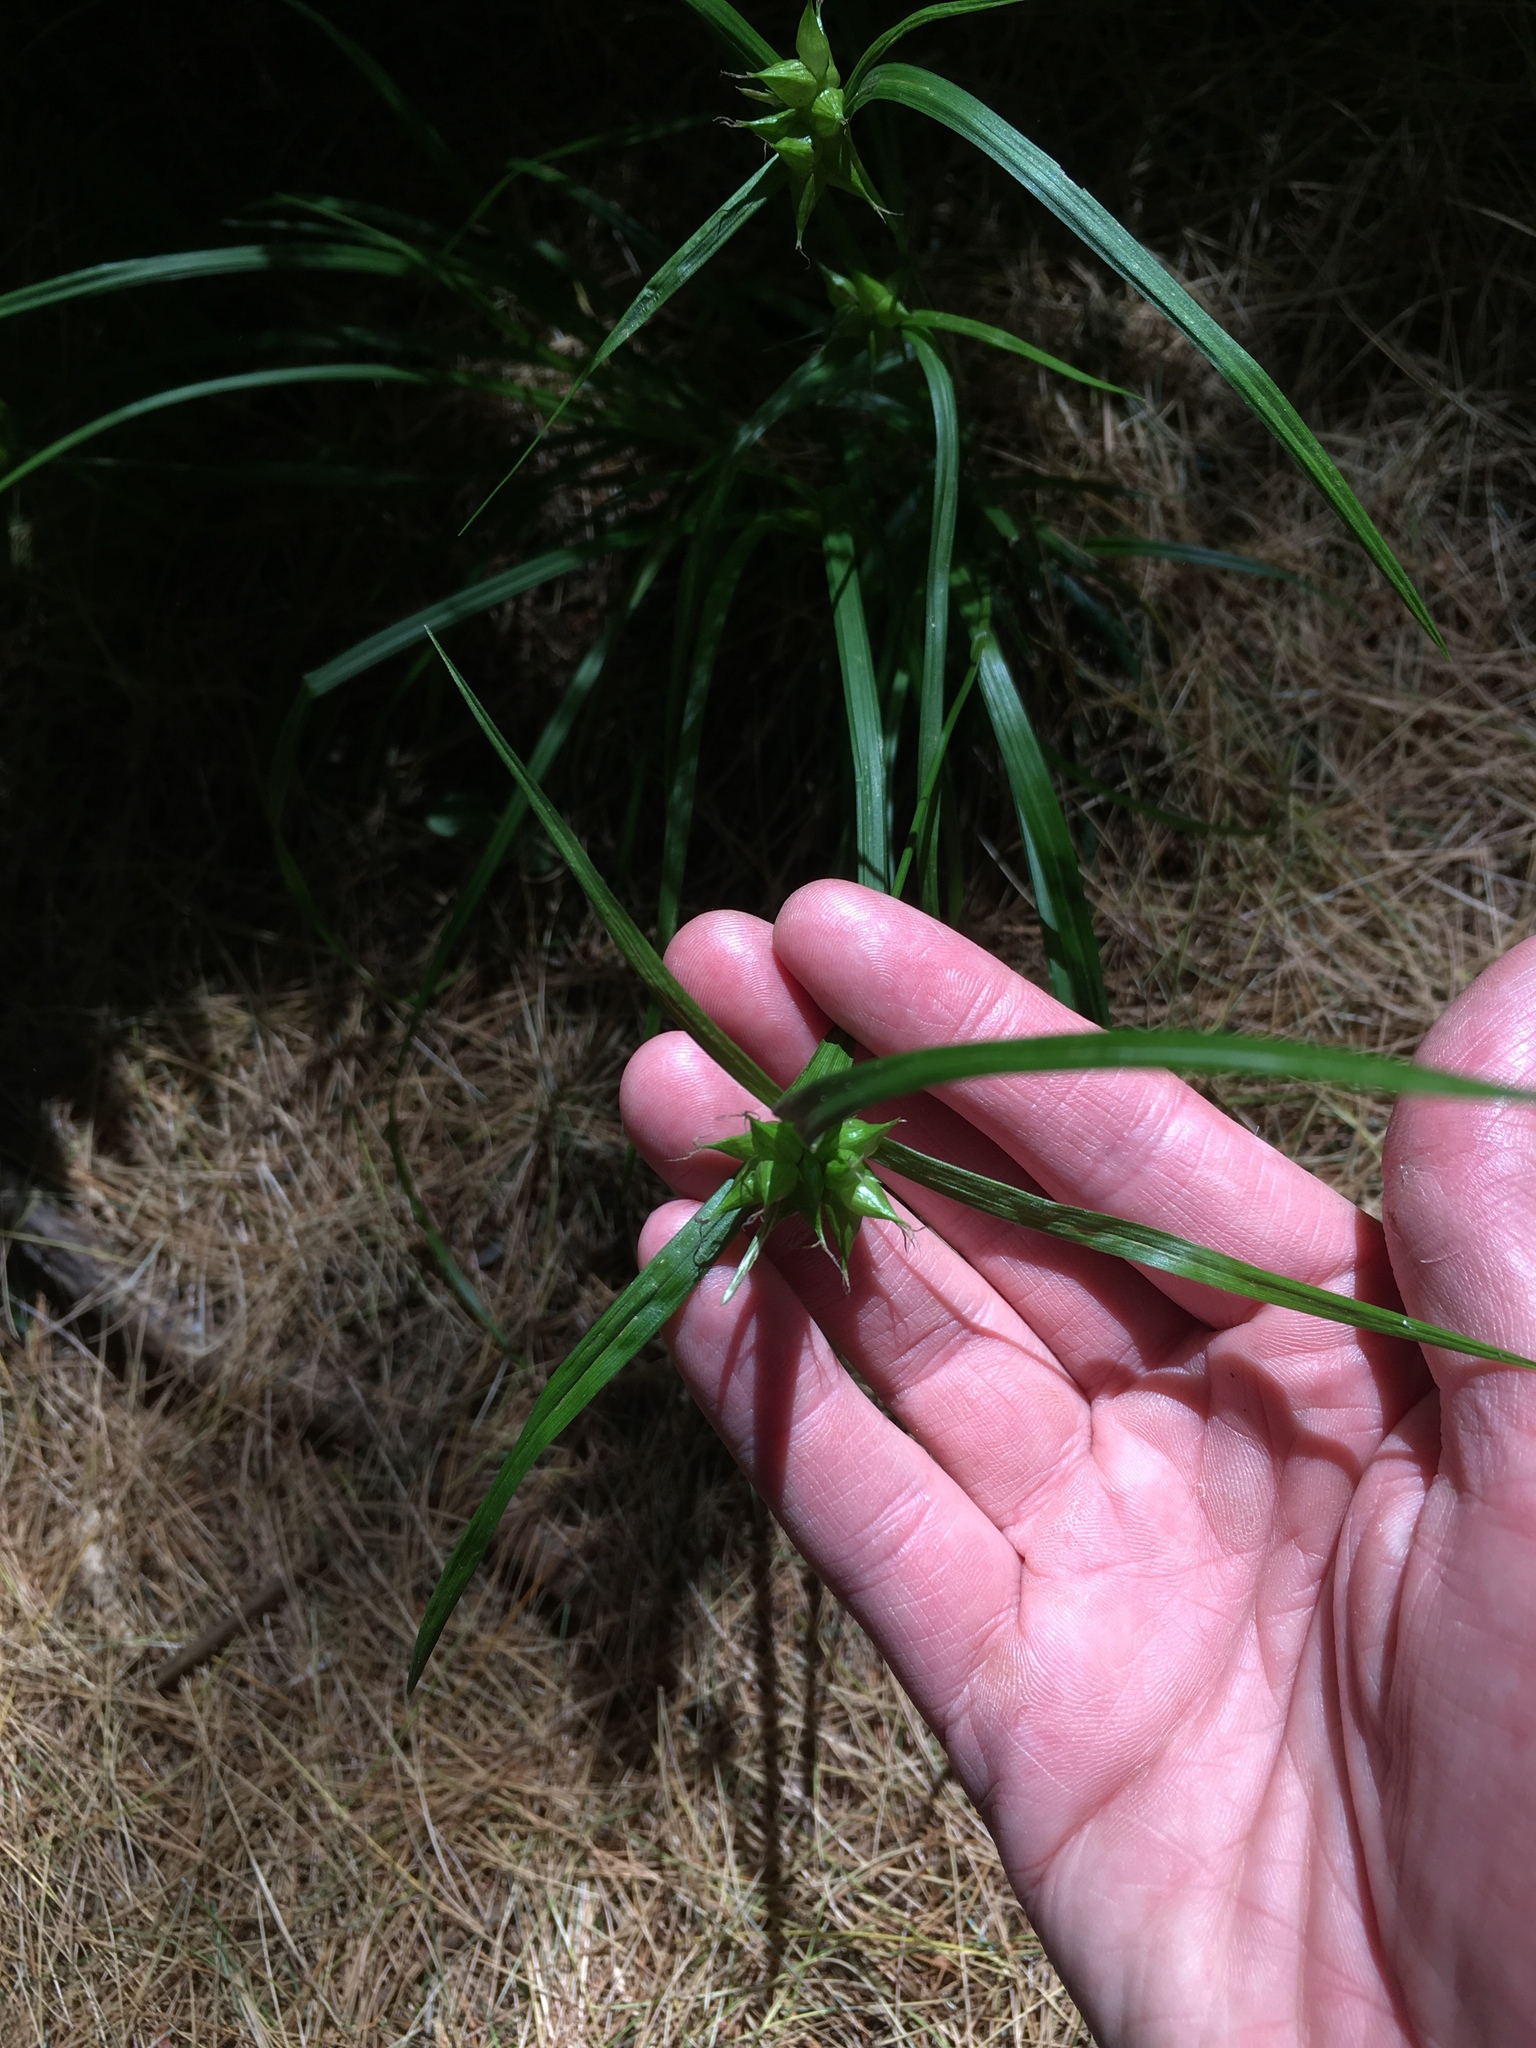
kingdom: Plantae
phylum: Tracheophyta
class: Liliopsida
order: Poales
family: Cyperaceae
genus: Carex
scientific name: Carex intumescens
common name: Greater bladder sedge
